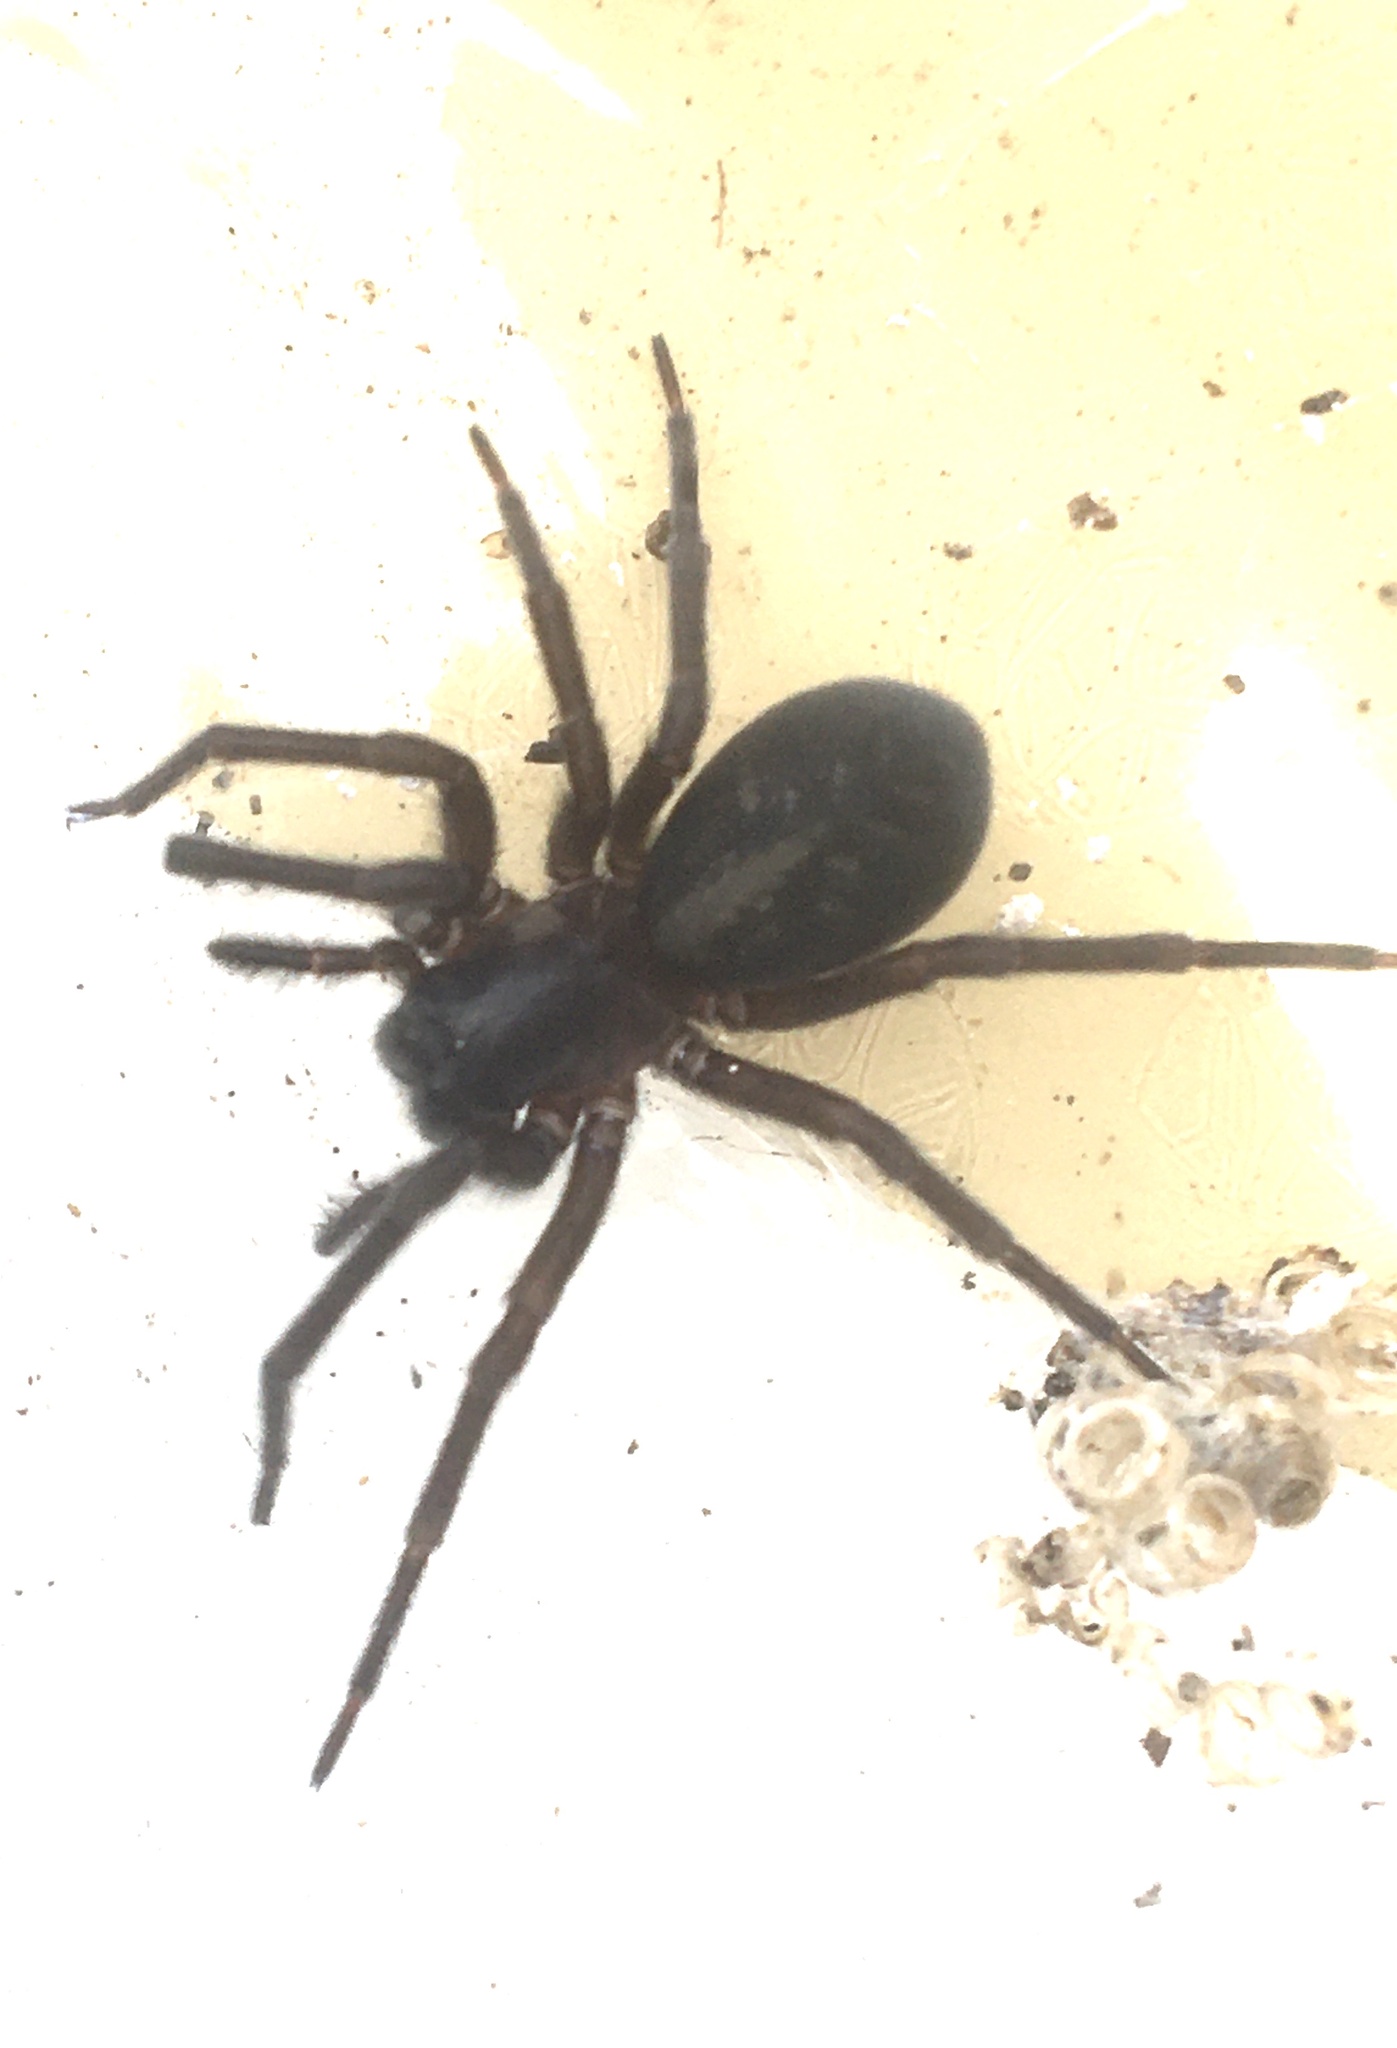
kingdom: Animalia
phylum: Arthropoda
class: Arachnida
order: Araneae
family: Amaurobiidae
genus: Amaurobius
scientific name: Amaurobius ferox
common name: Black laceweaver
